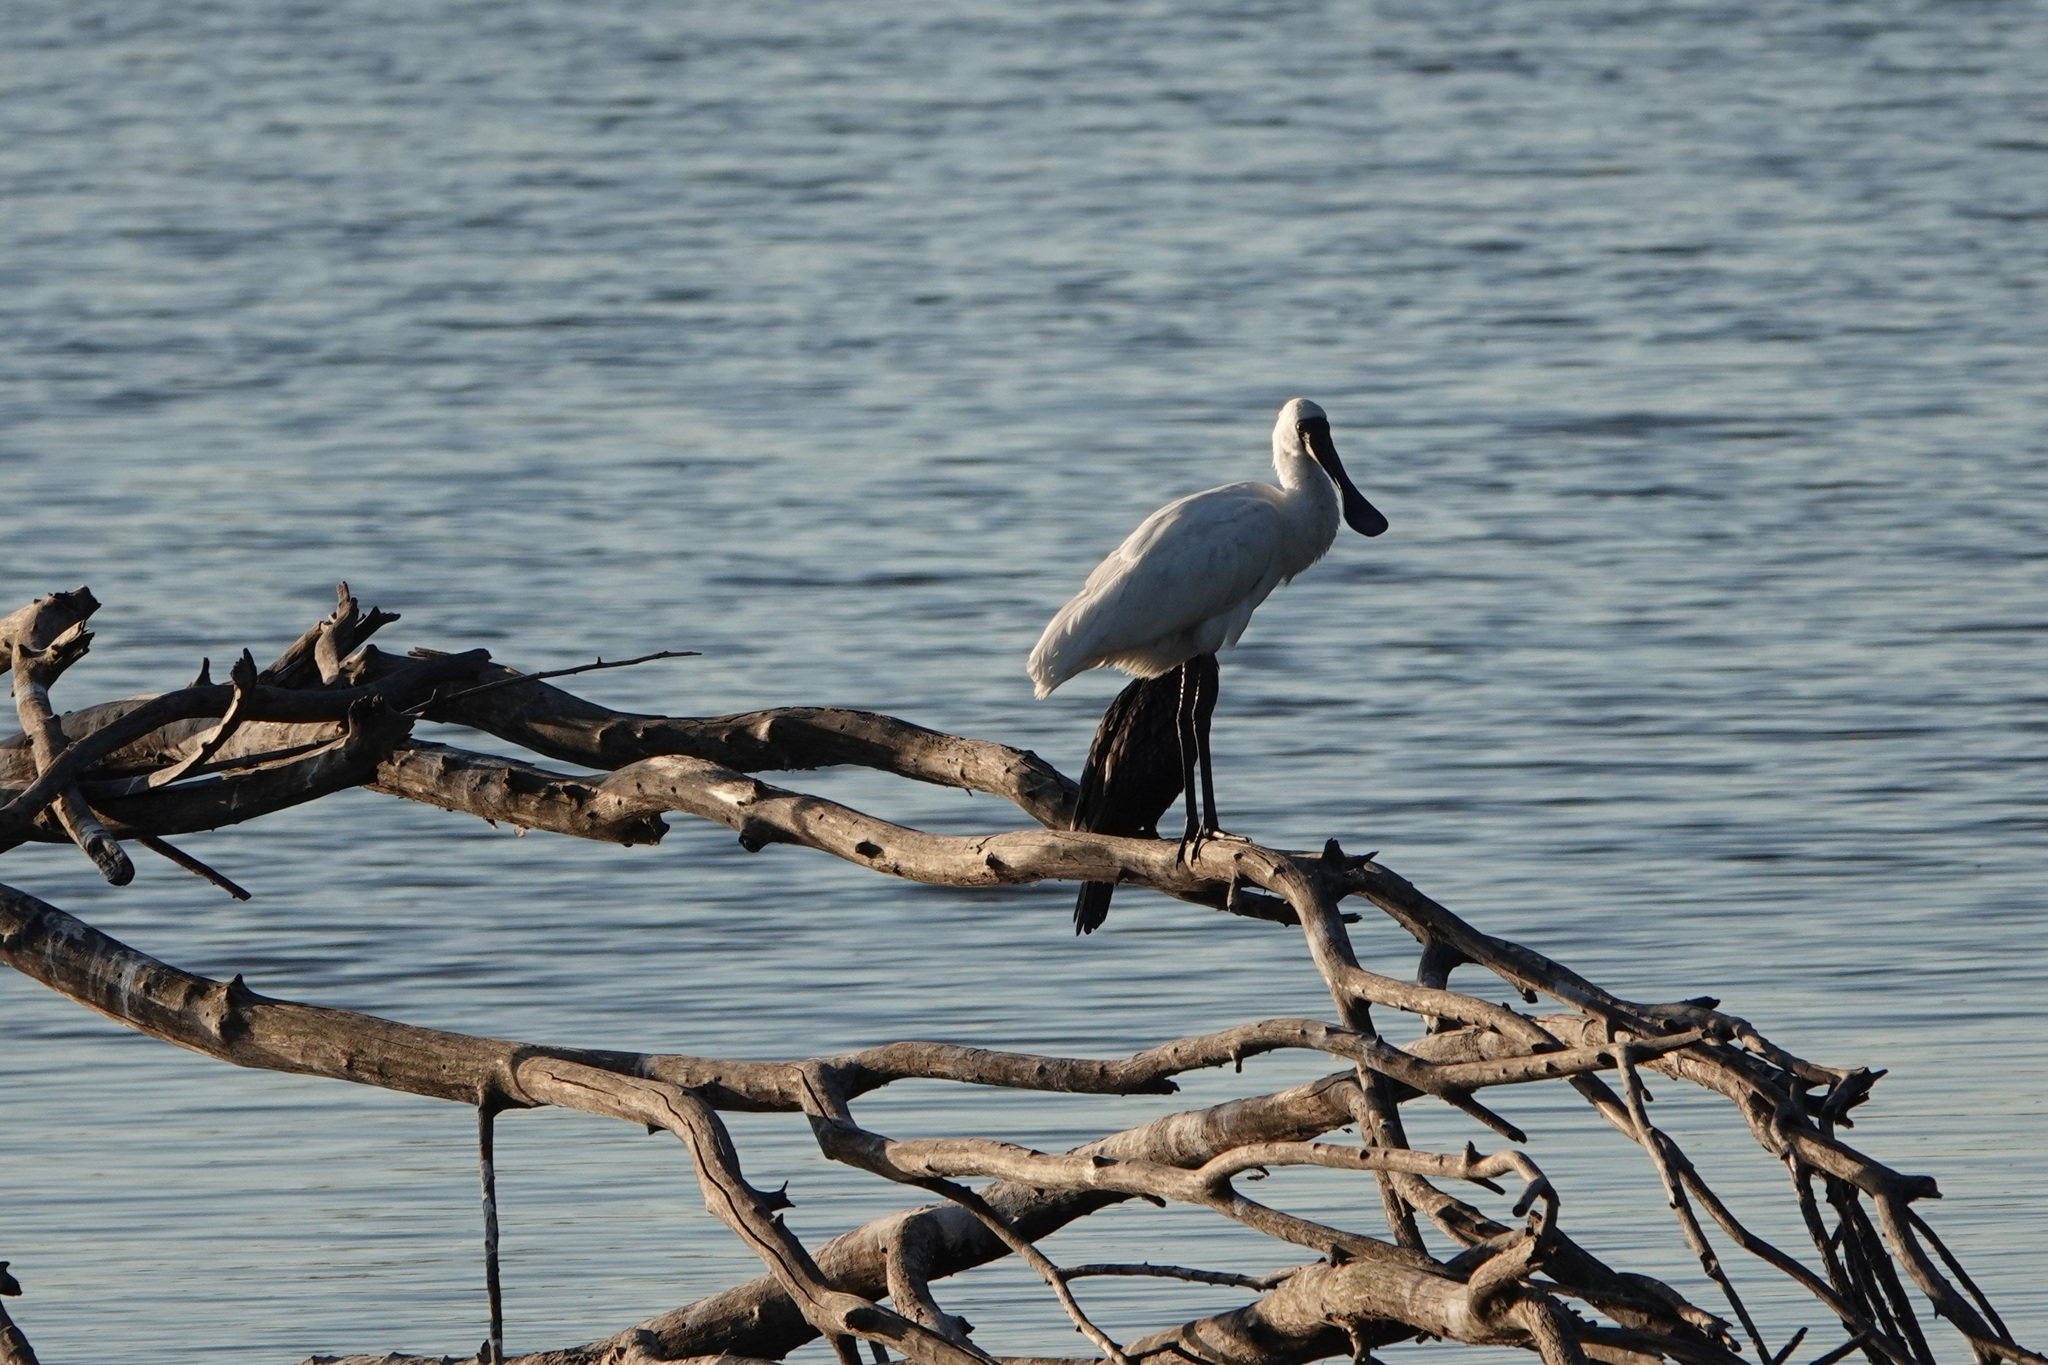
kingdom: Animalia
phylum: Chordata
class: Aves
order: Pelecaniformes
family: Threskiornithidae
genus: Platalea
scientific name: Platalea regia
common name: Royal spoonbill
